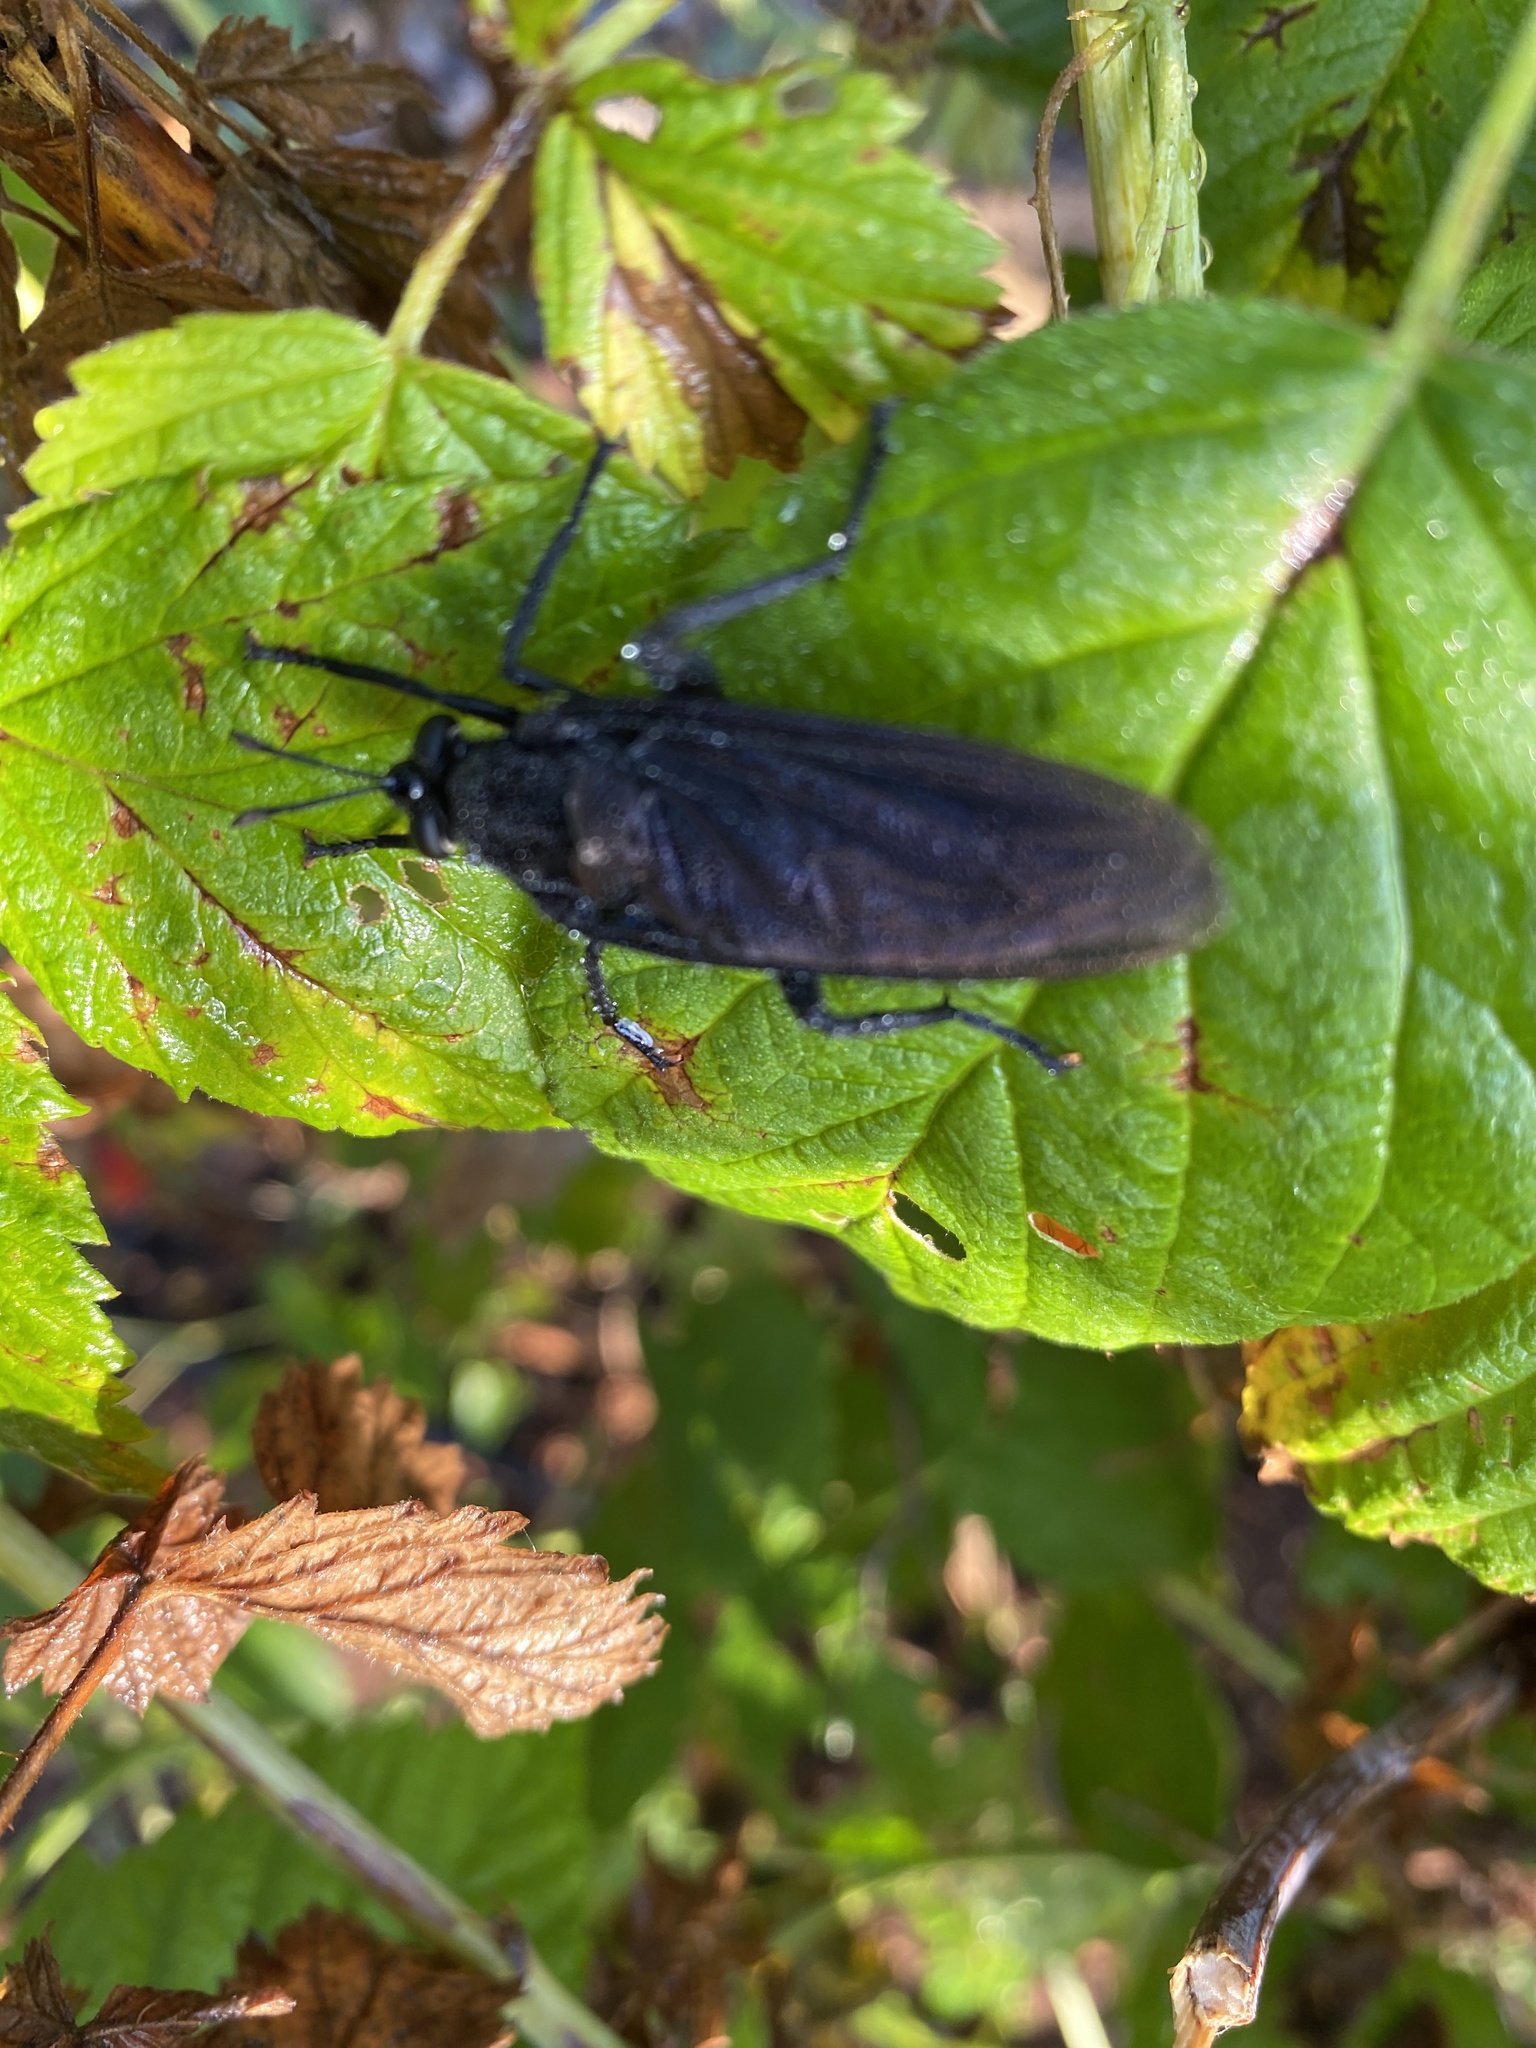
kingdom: Animalia
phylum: Arthropoda
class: Insecta
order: Diptera
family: Mydidae
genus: Mydas
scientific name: Mydas clavatus
